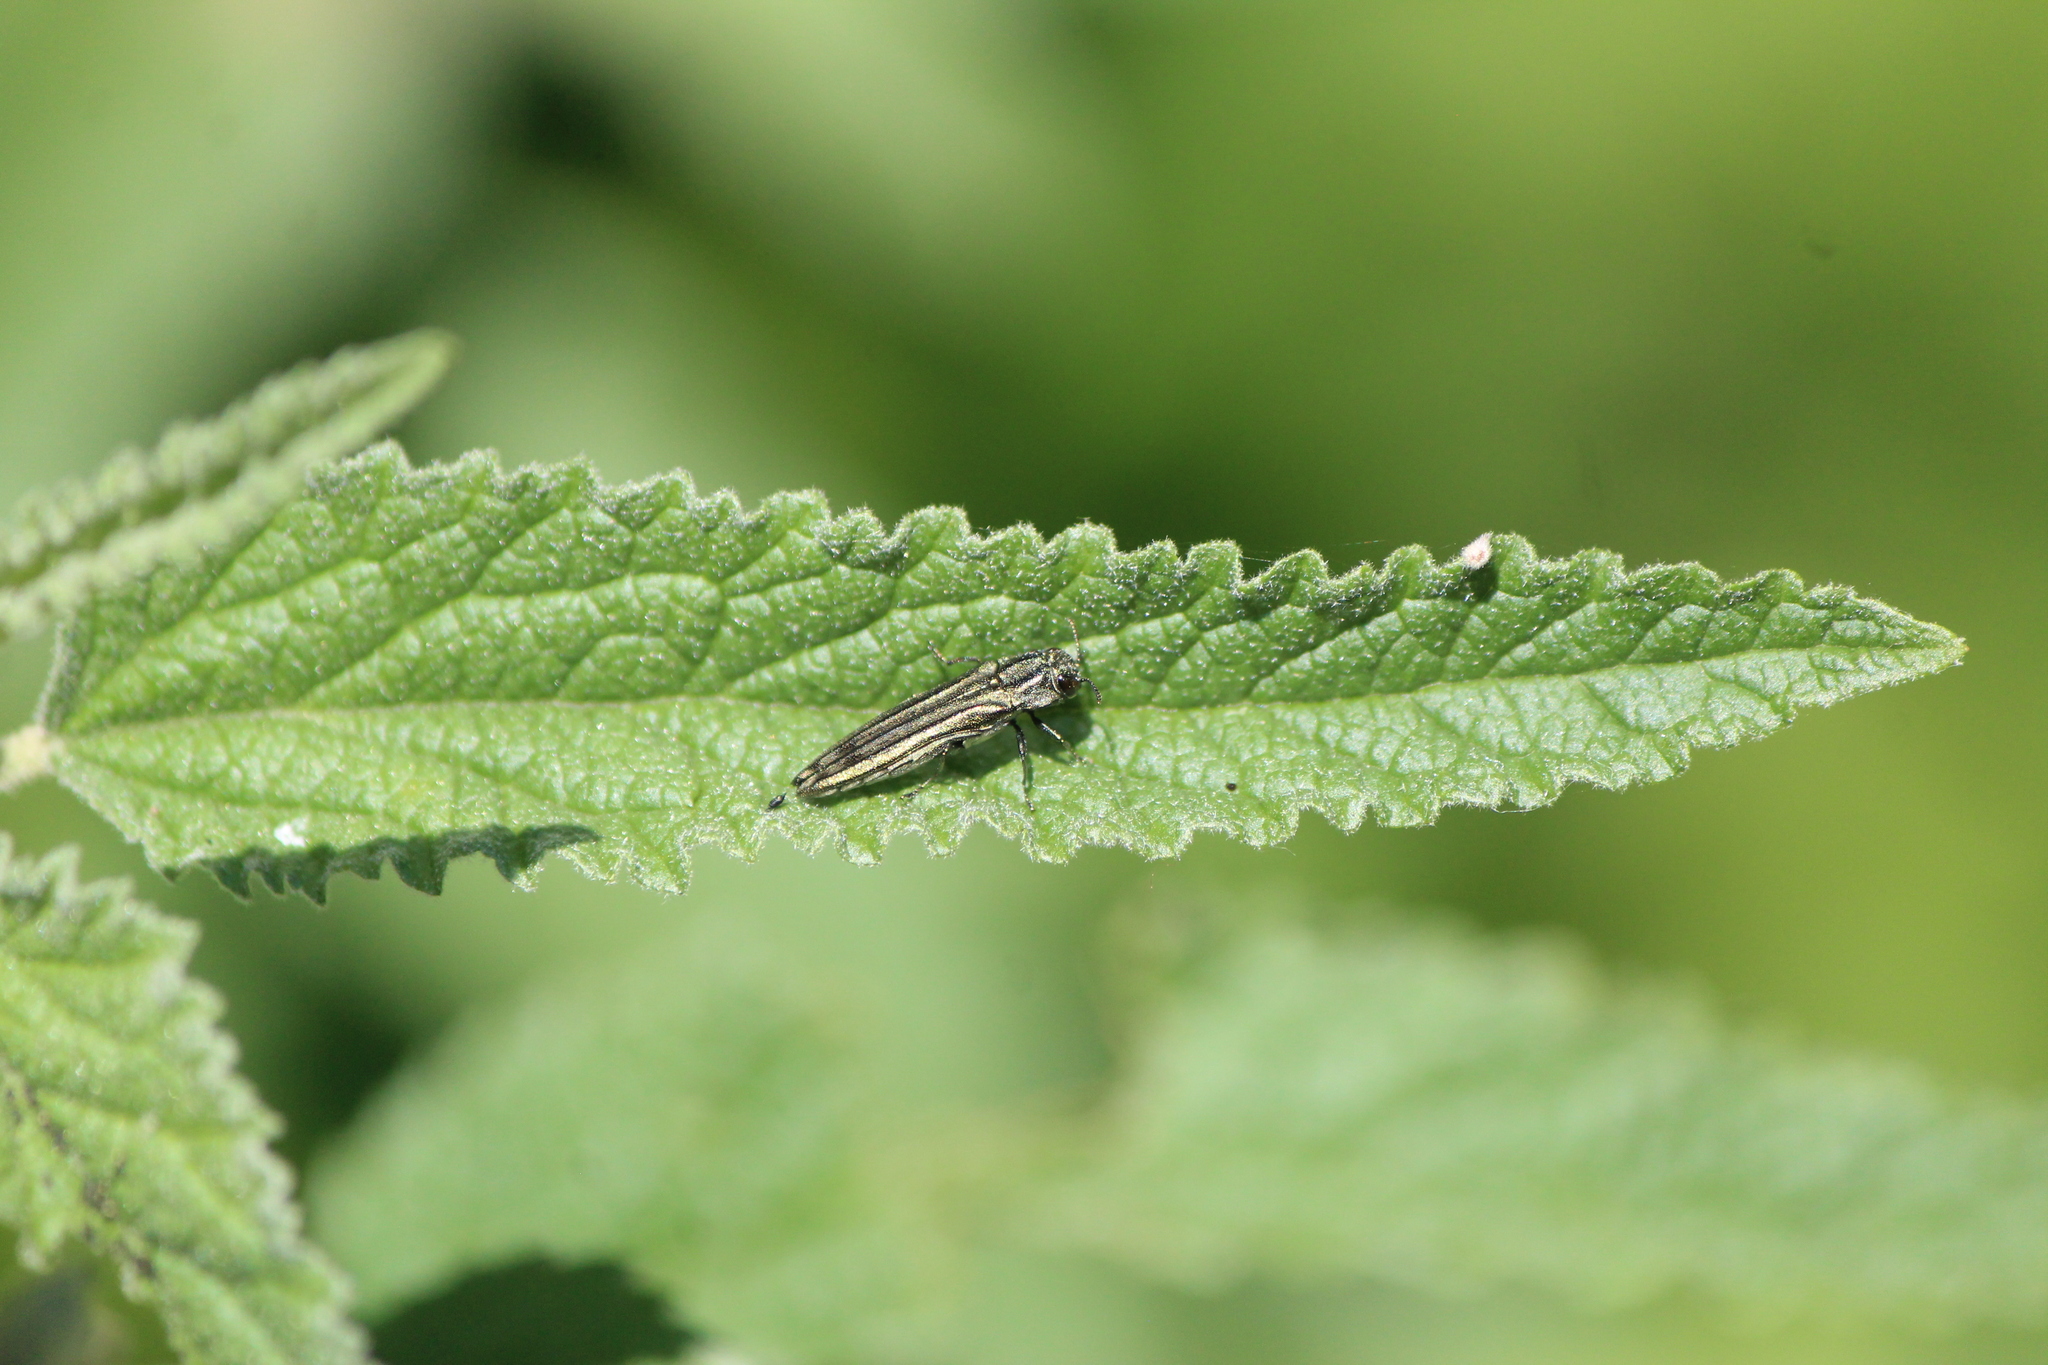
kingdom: Animalia
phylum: Arthropoda
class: Insecta
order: Coleoptera
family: Buprestidae
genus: Agrilus
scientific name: Agrilus aureus
